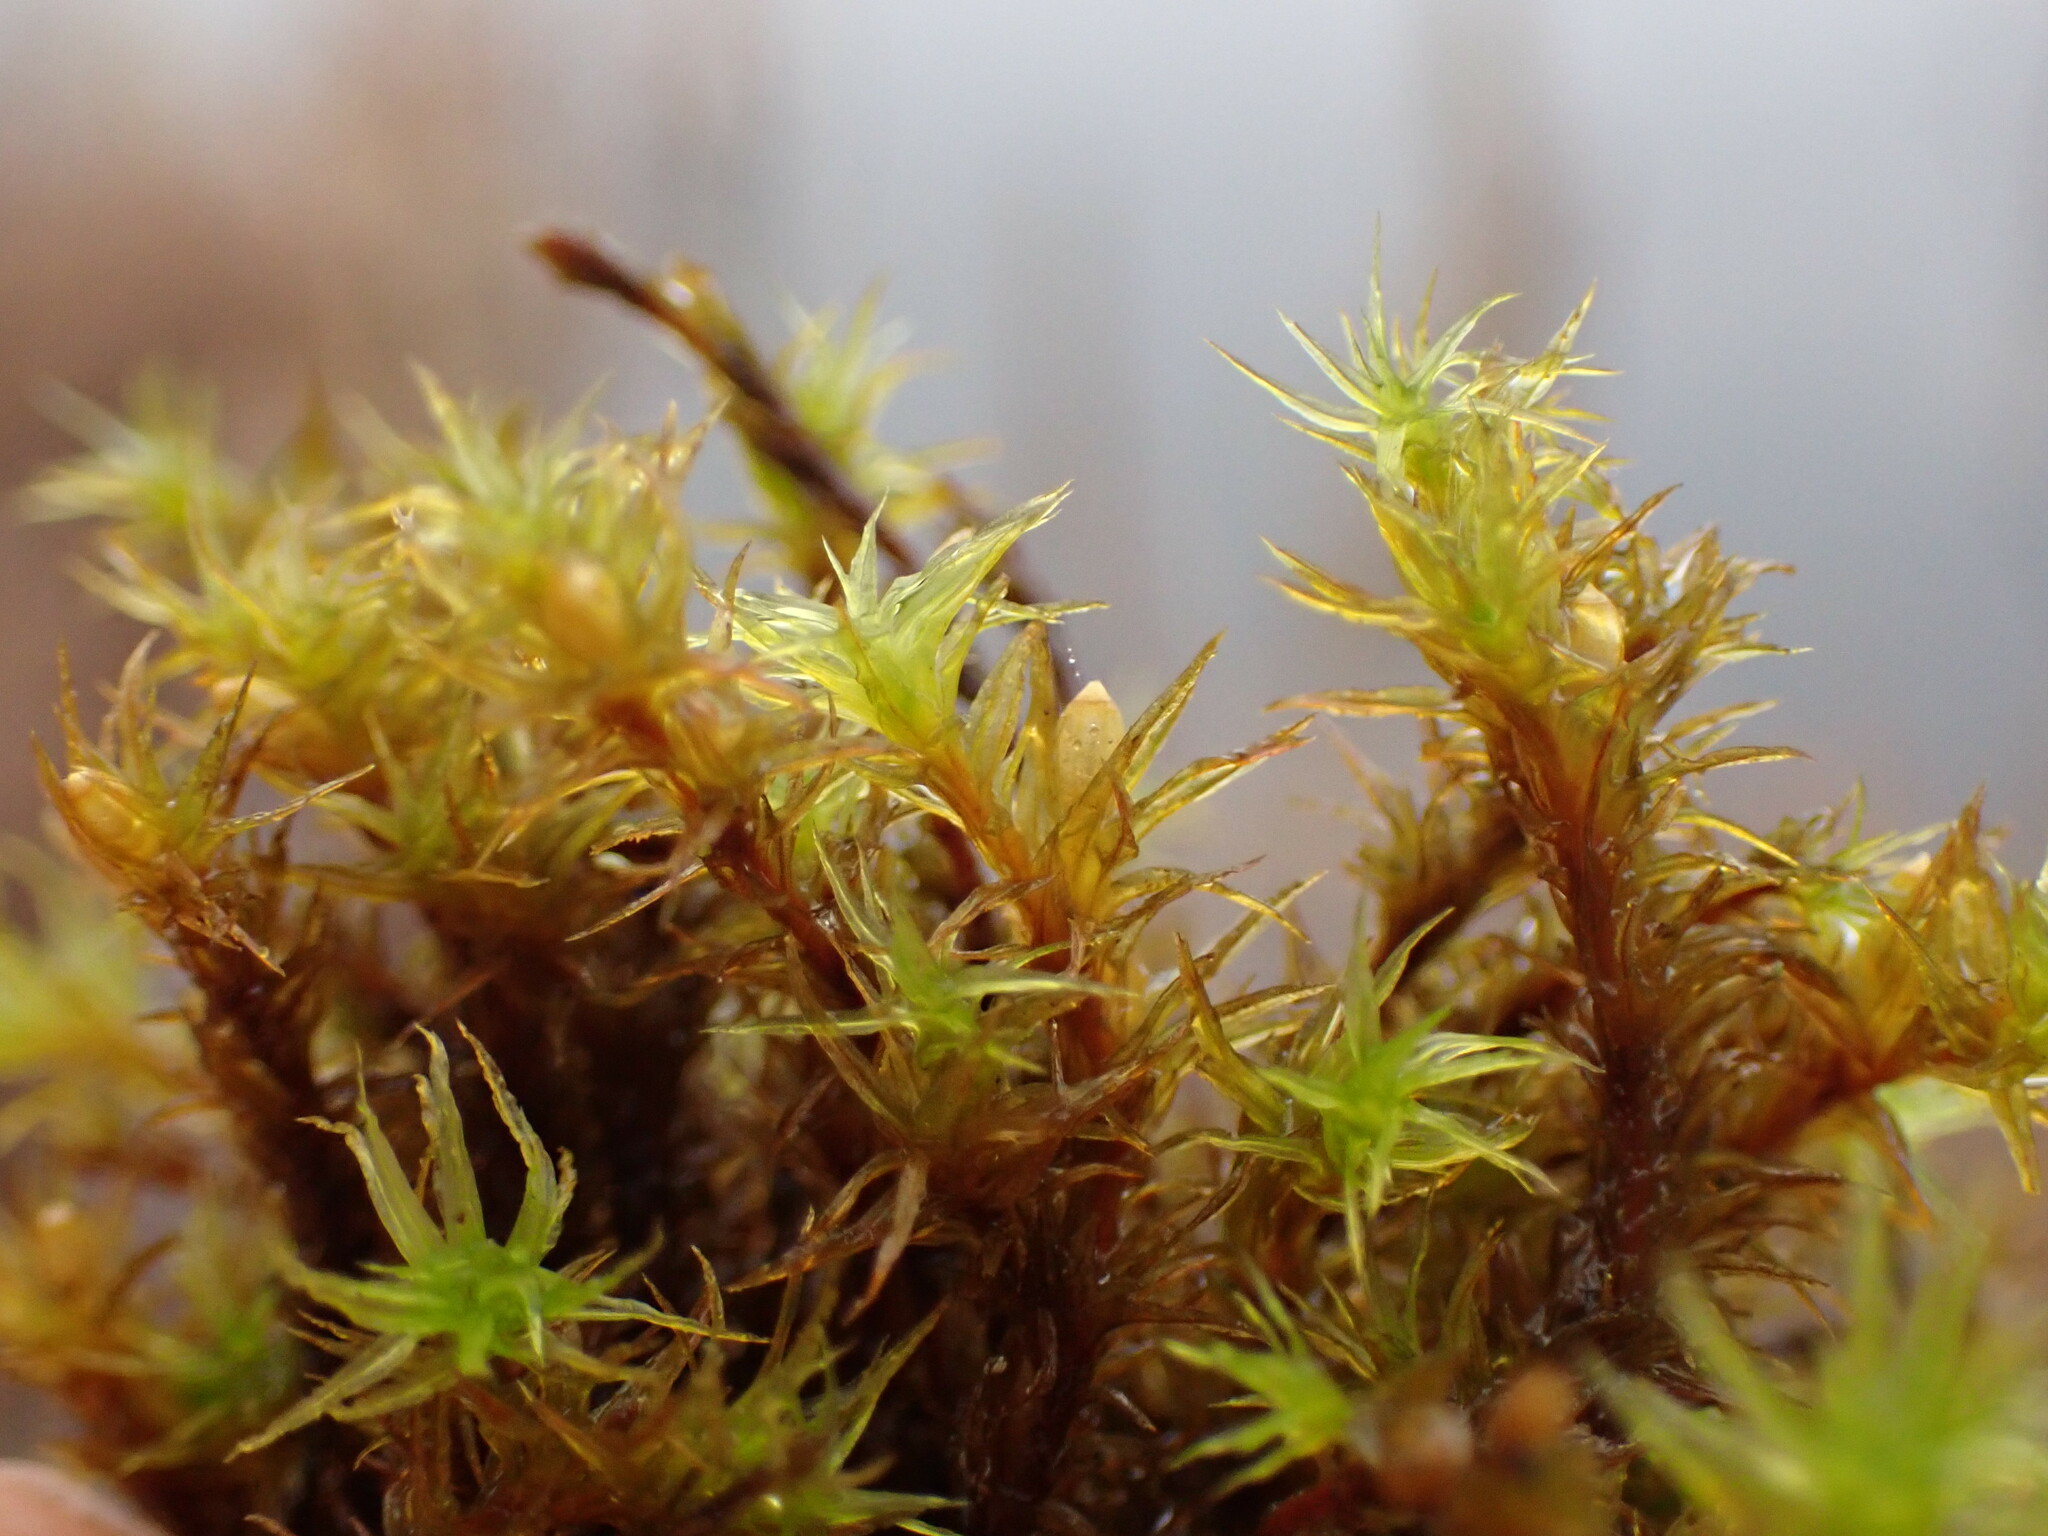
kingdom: Plantae
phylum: Bryophyta
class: Bryopsida
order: Orthotrichales
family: Orthotrichaceae
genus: Pulvigera
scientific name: Pulvigera papillosa
